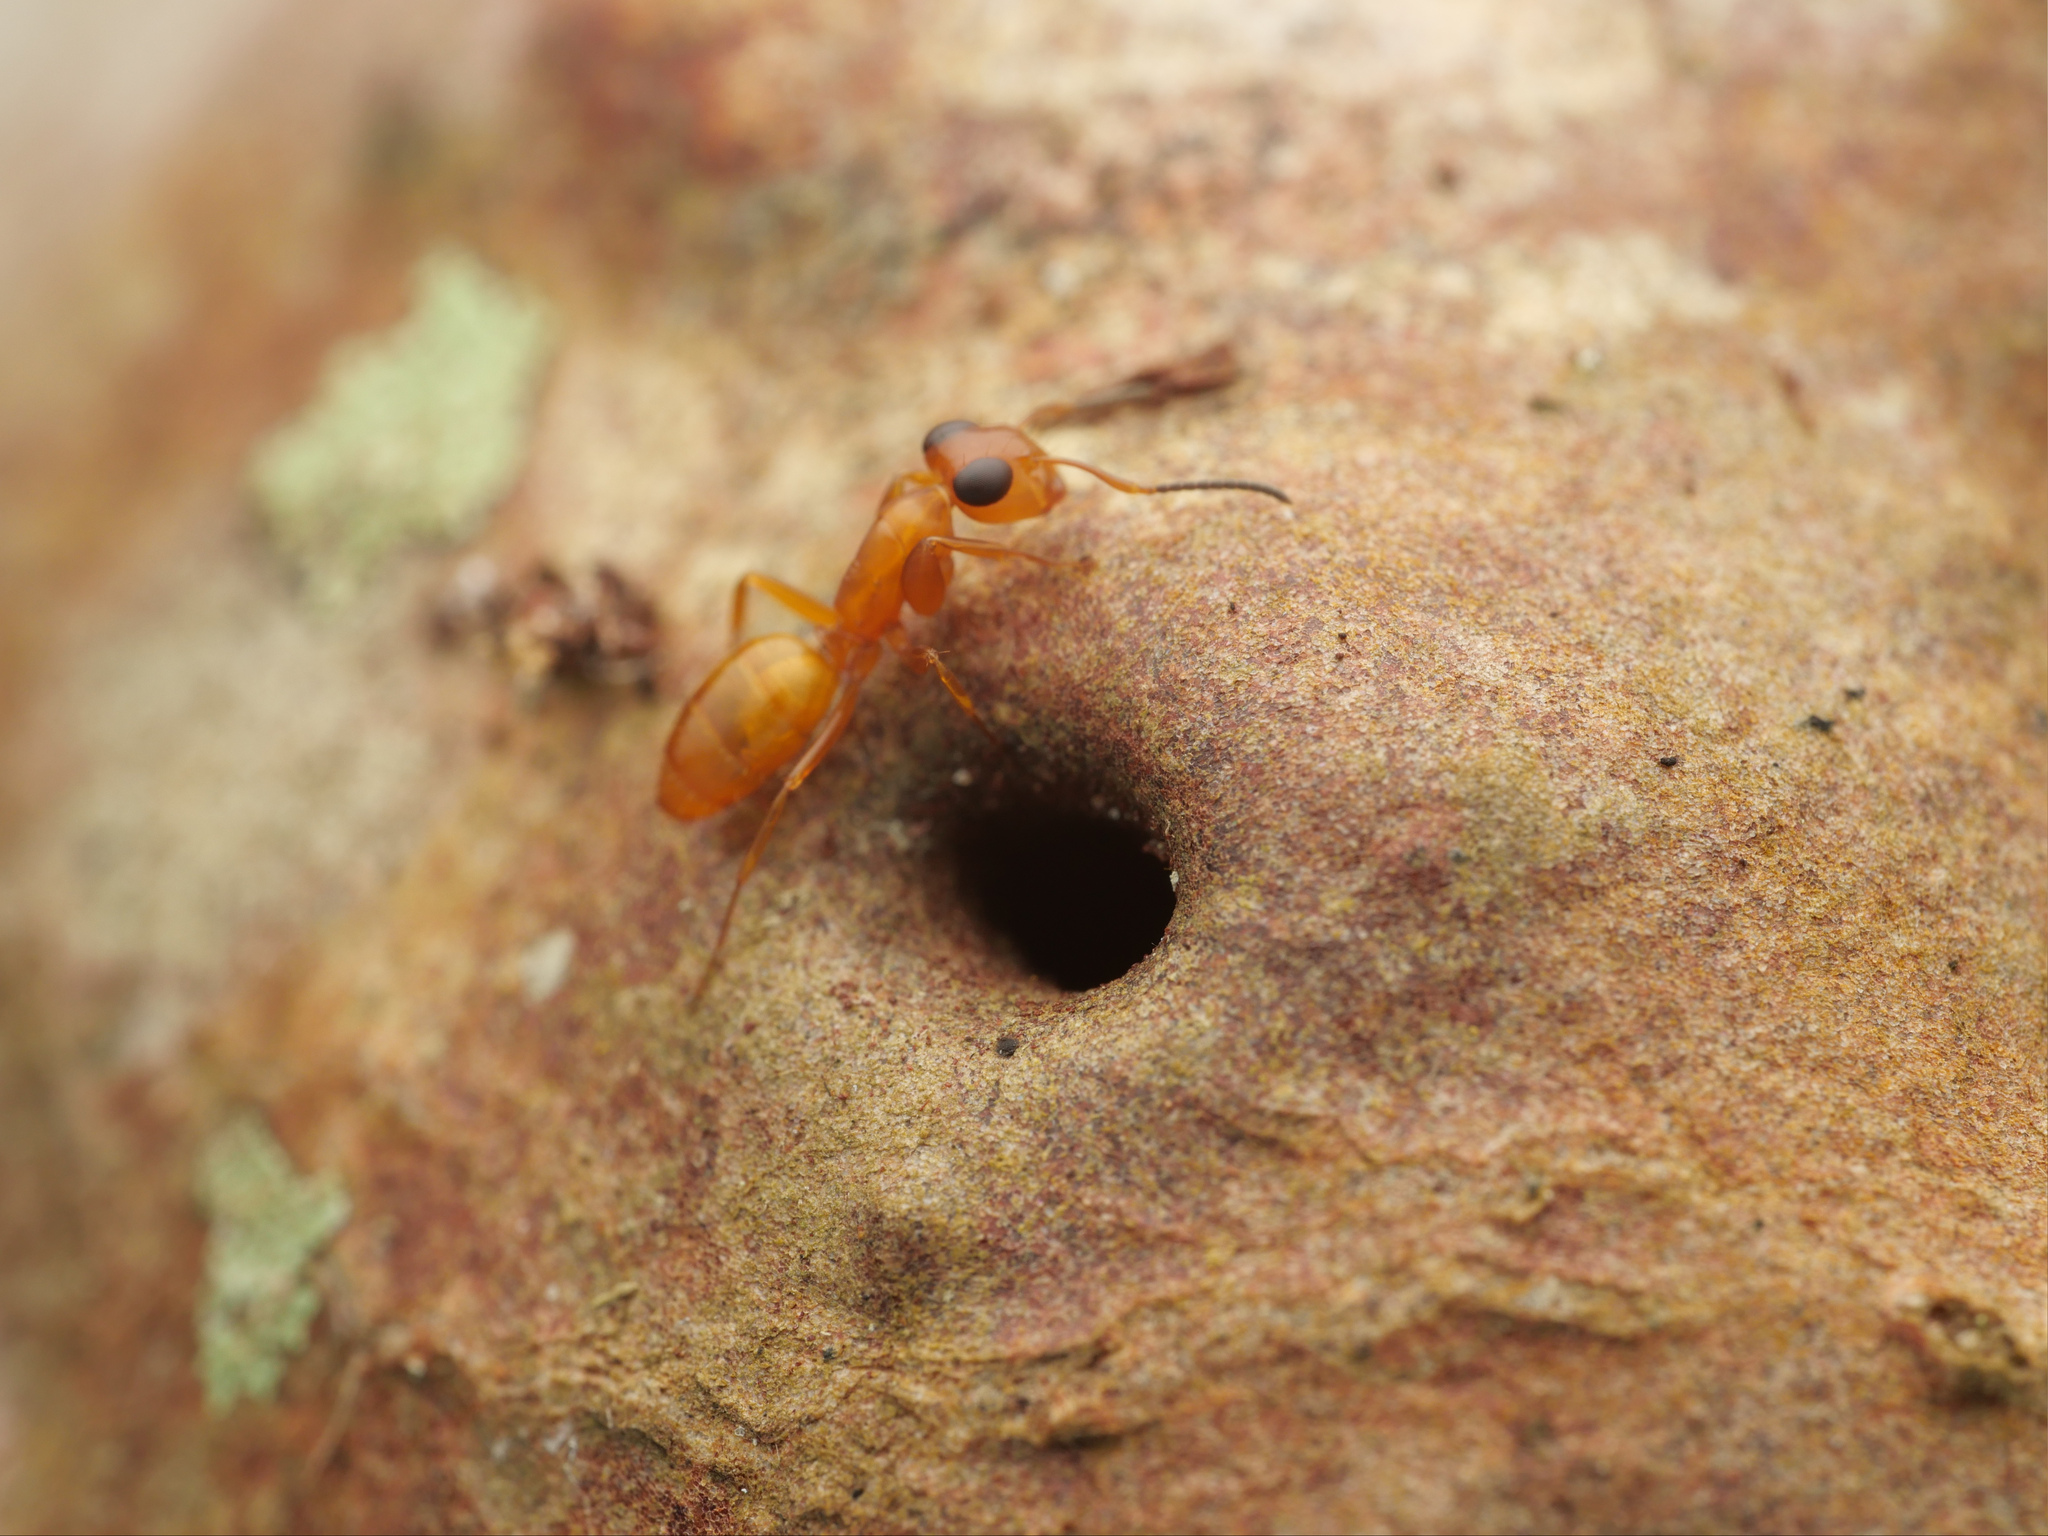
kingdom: Animalia
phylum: Arthropoda
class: Insecta
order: Hymenoptera
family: Formicidae
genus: Opisthopsis
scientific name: Opisthopsis manni
